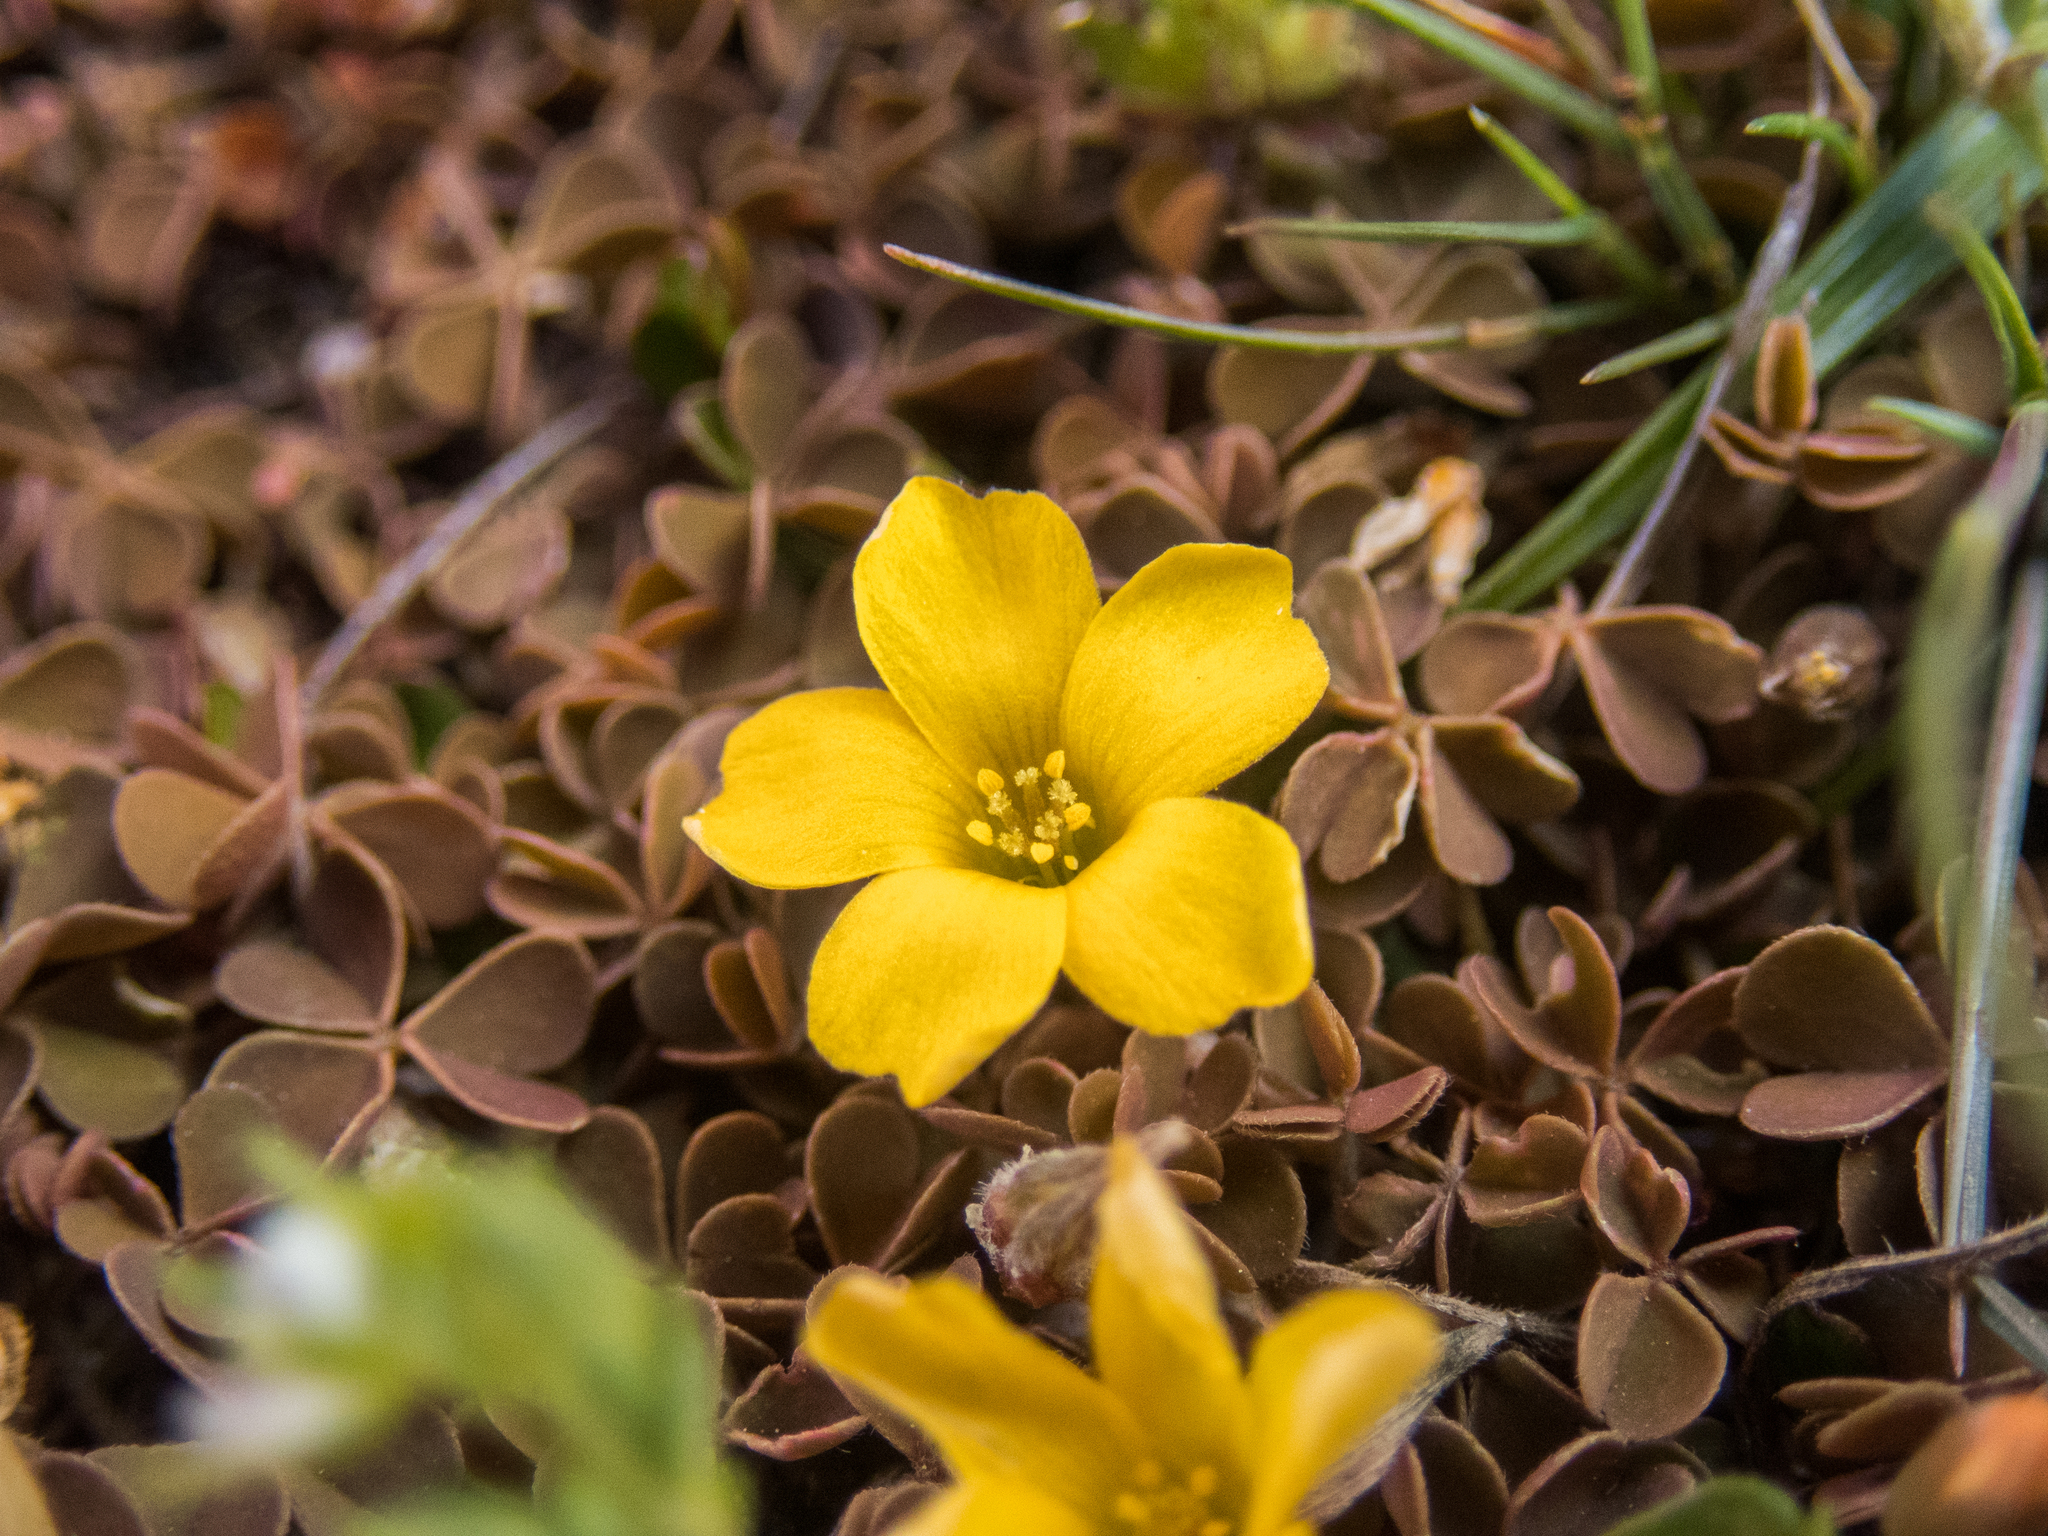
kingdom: Plantae
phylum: Tracheophyta
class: Magnoliopsida
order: Oxalidales
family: Oxalidaceae
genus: Oxalis
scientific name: Oxalis exilis
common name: Least yellow-sorrel
